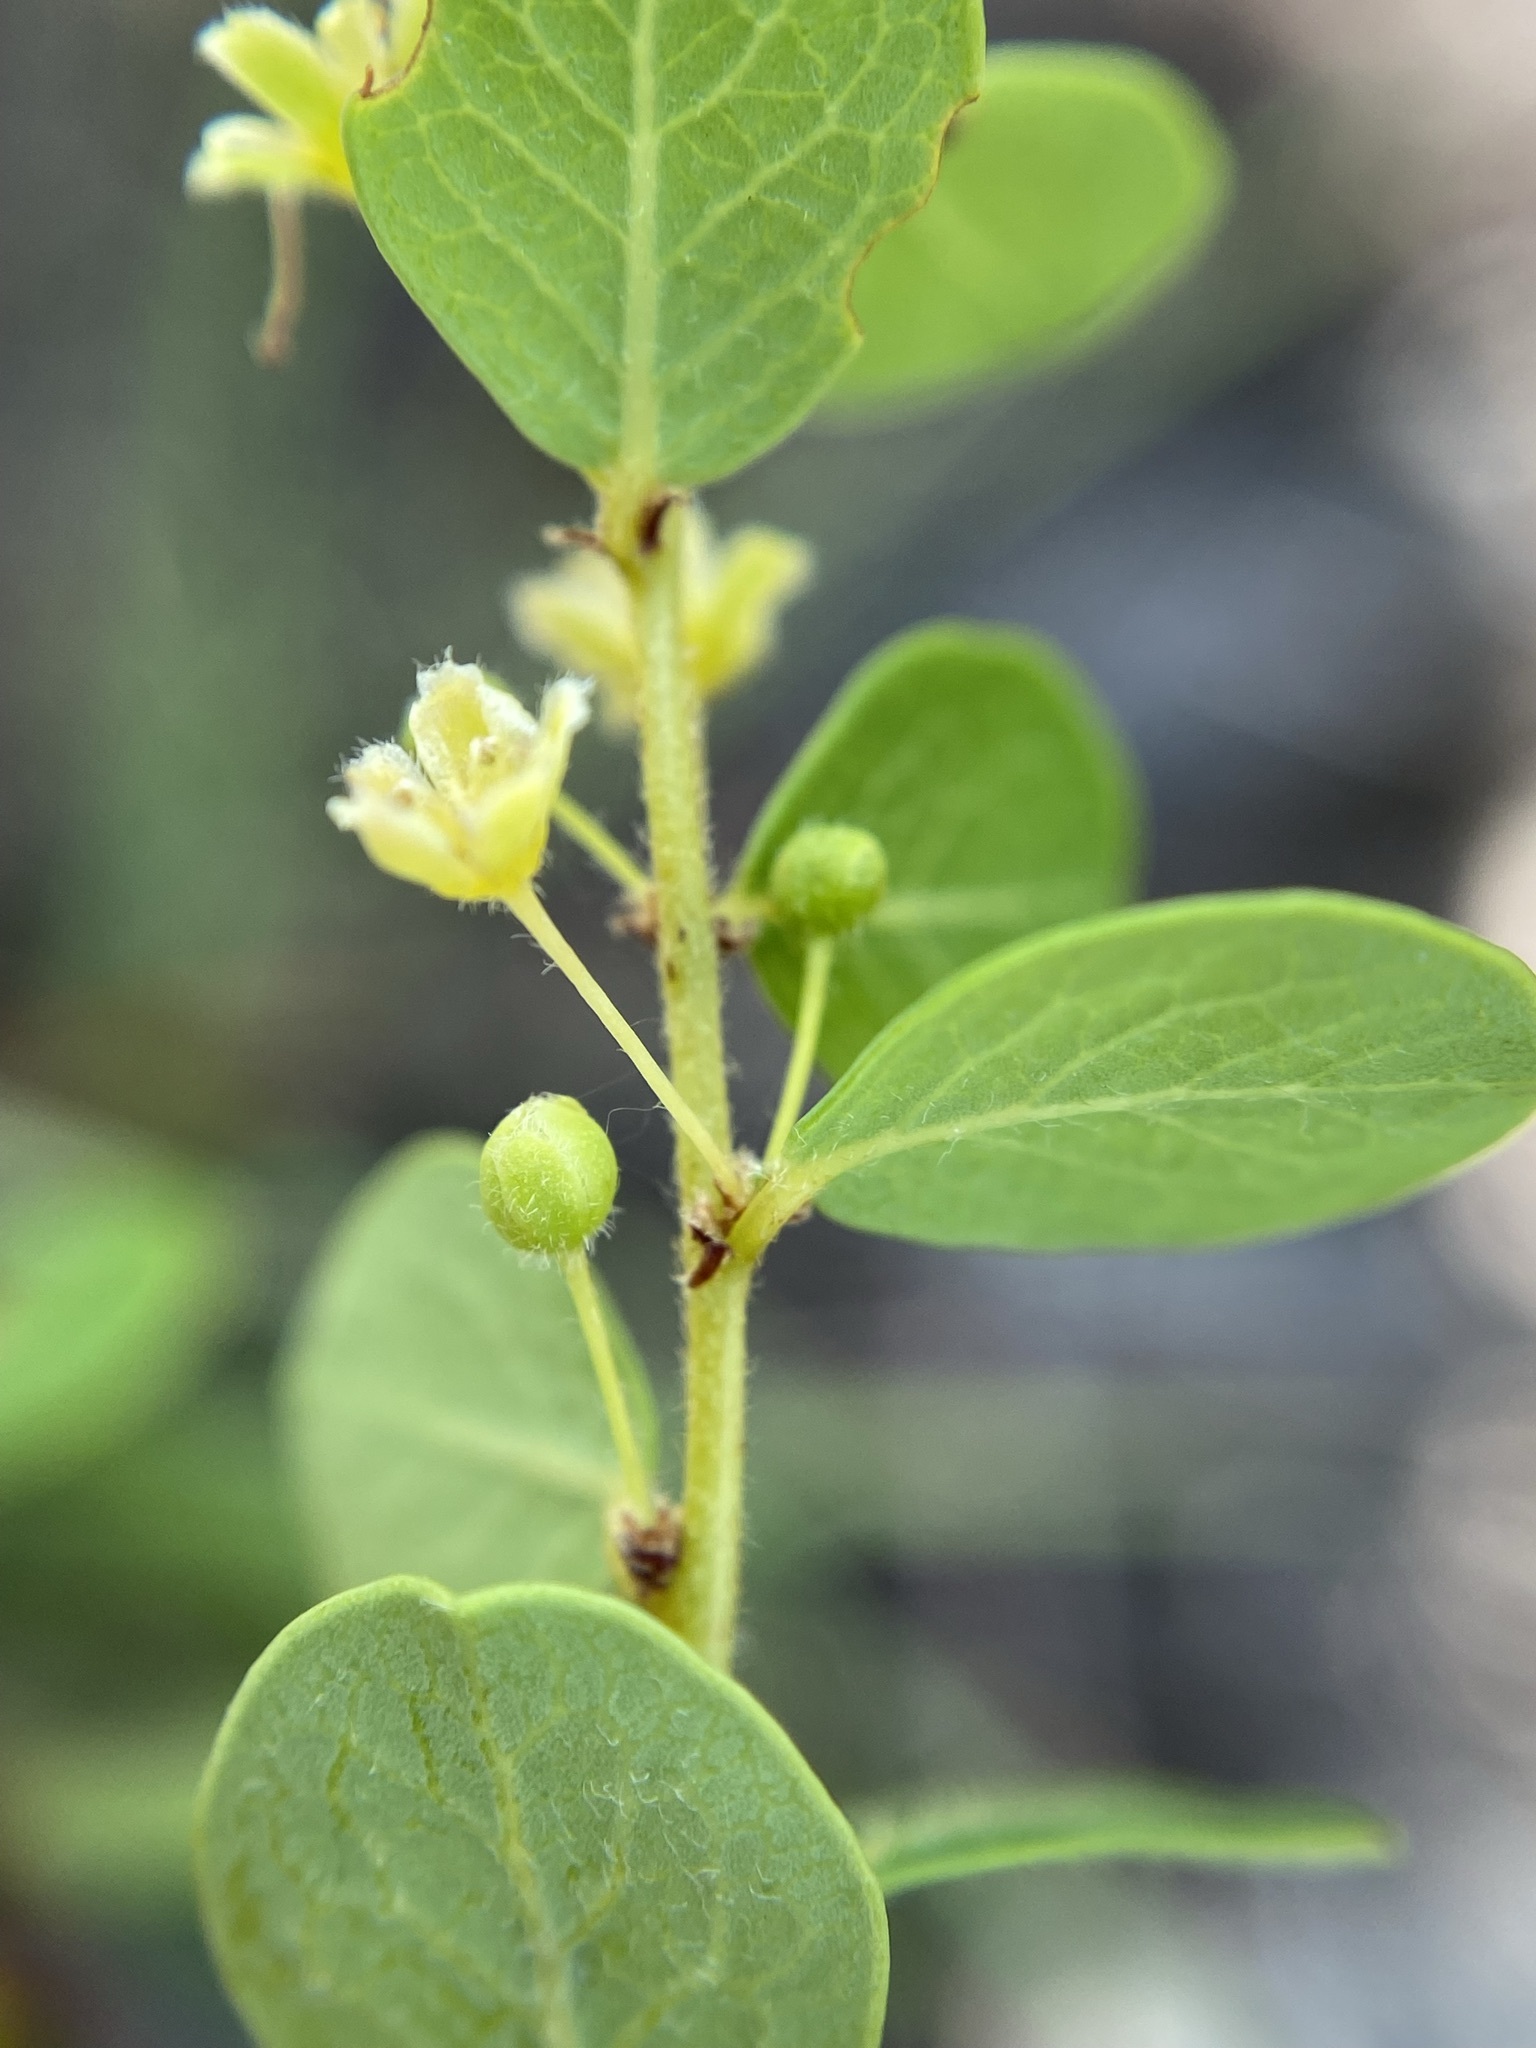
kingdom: Plantae
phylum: Tracheophyta
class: Magnoliopsida
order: Malpighiales
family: Phyllanthaceae
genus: Phyllanthopsis
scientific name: Phyllanthopsis phyllanthoides
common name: Missouri maidenbush
